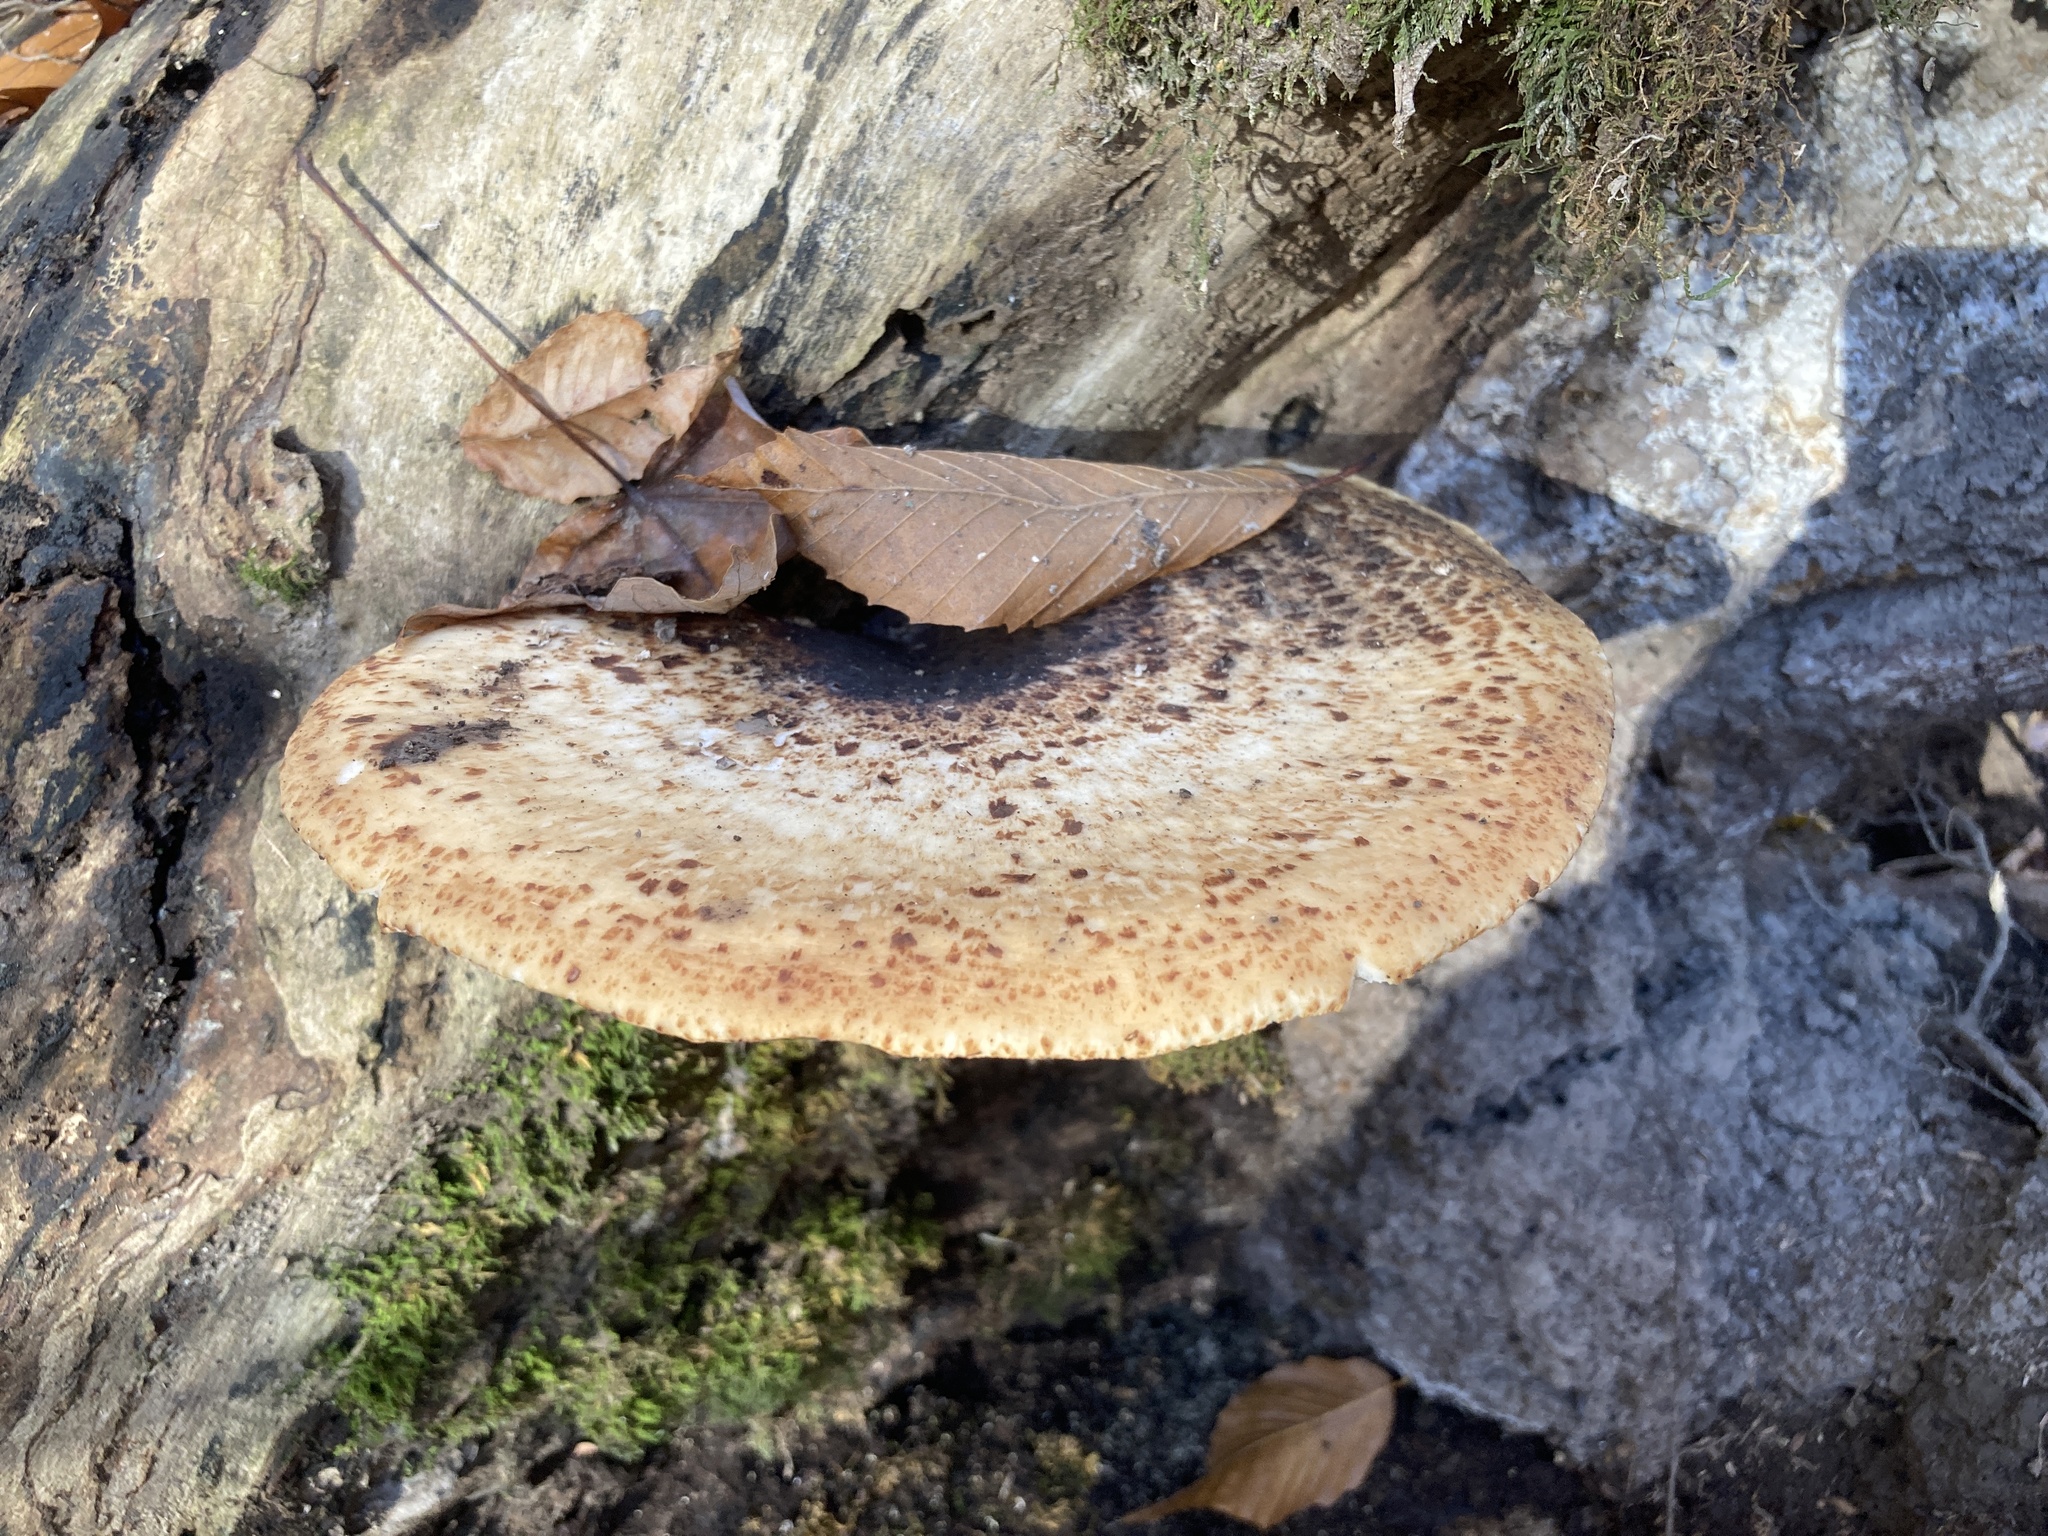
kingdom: Fungi
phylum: Basidiomycota
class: Agaricomycetes
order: Polyporales
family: Polyporaceae
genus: Cerioporus
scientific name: Cerioporus squamosus
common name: Dryad's saddle
